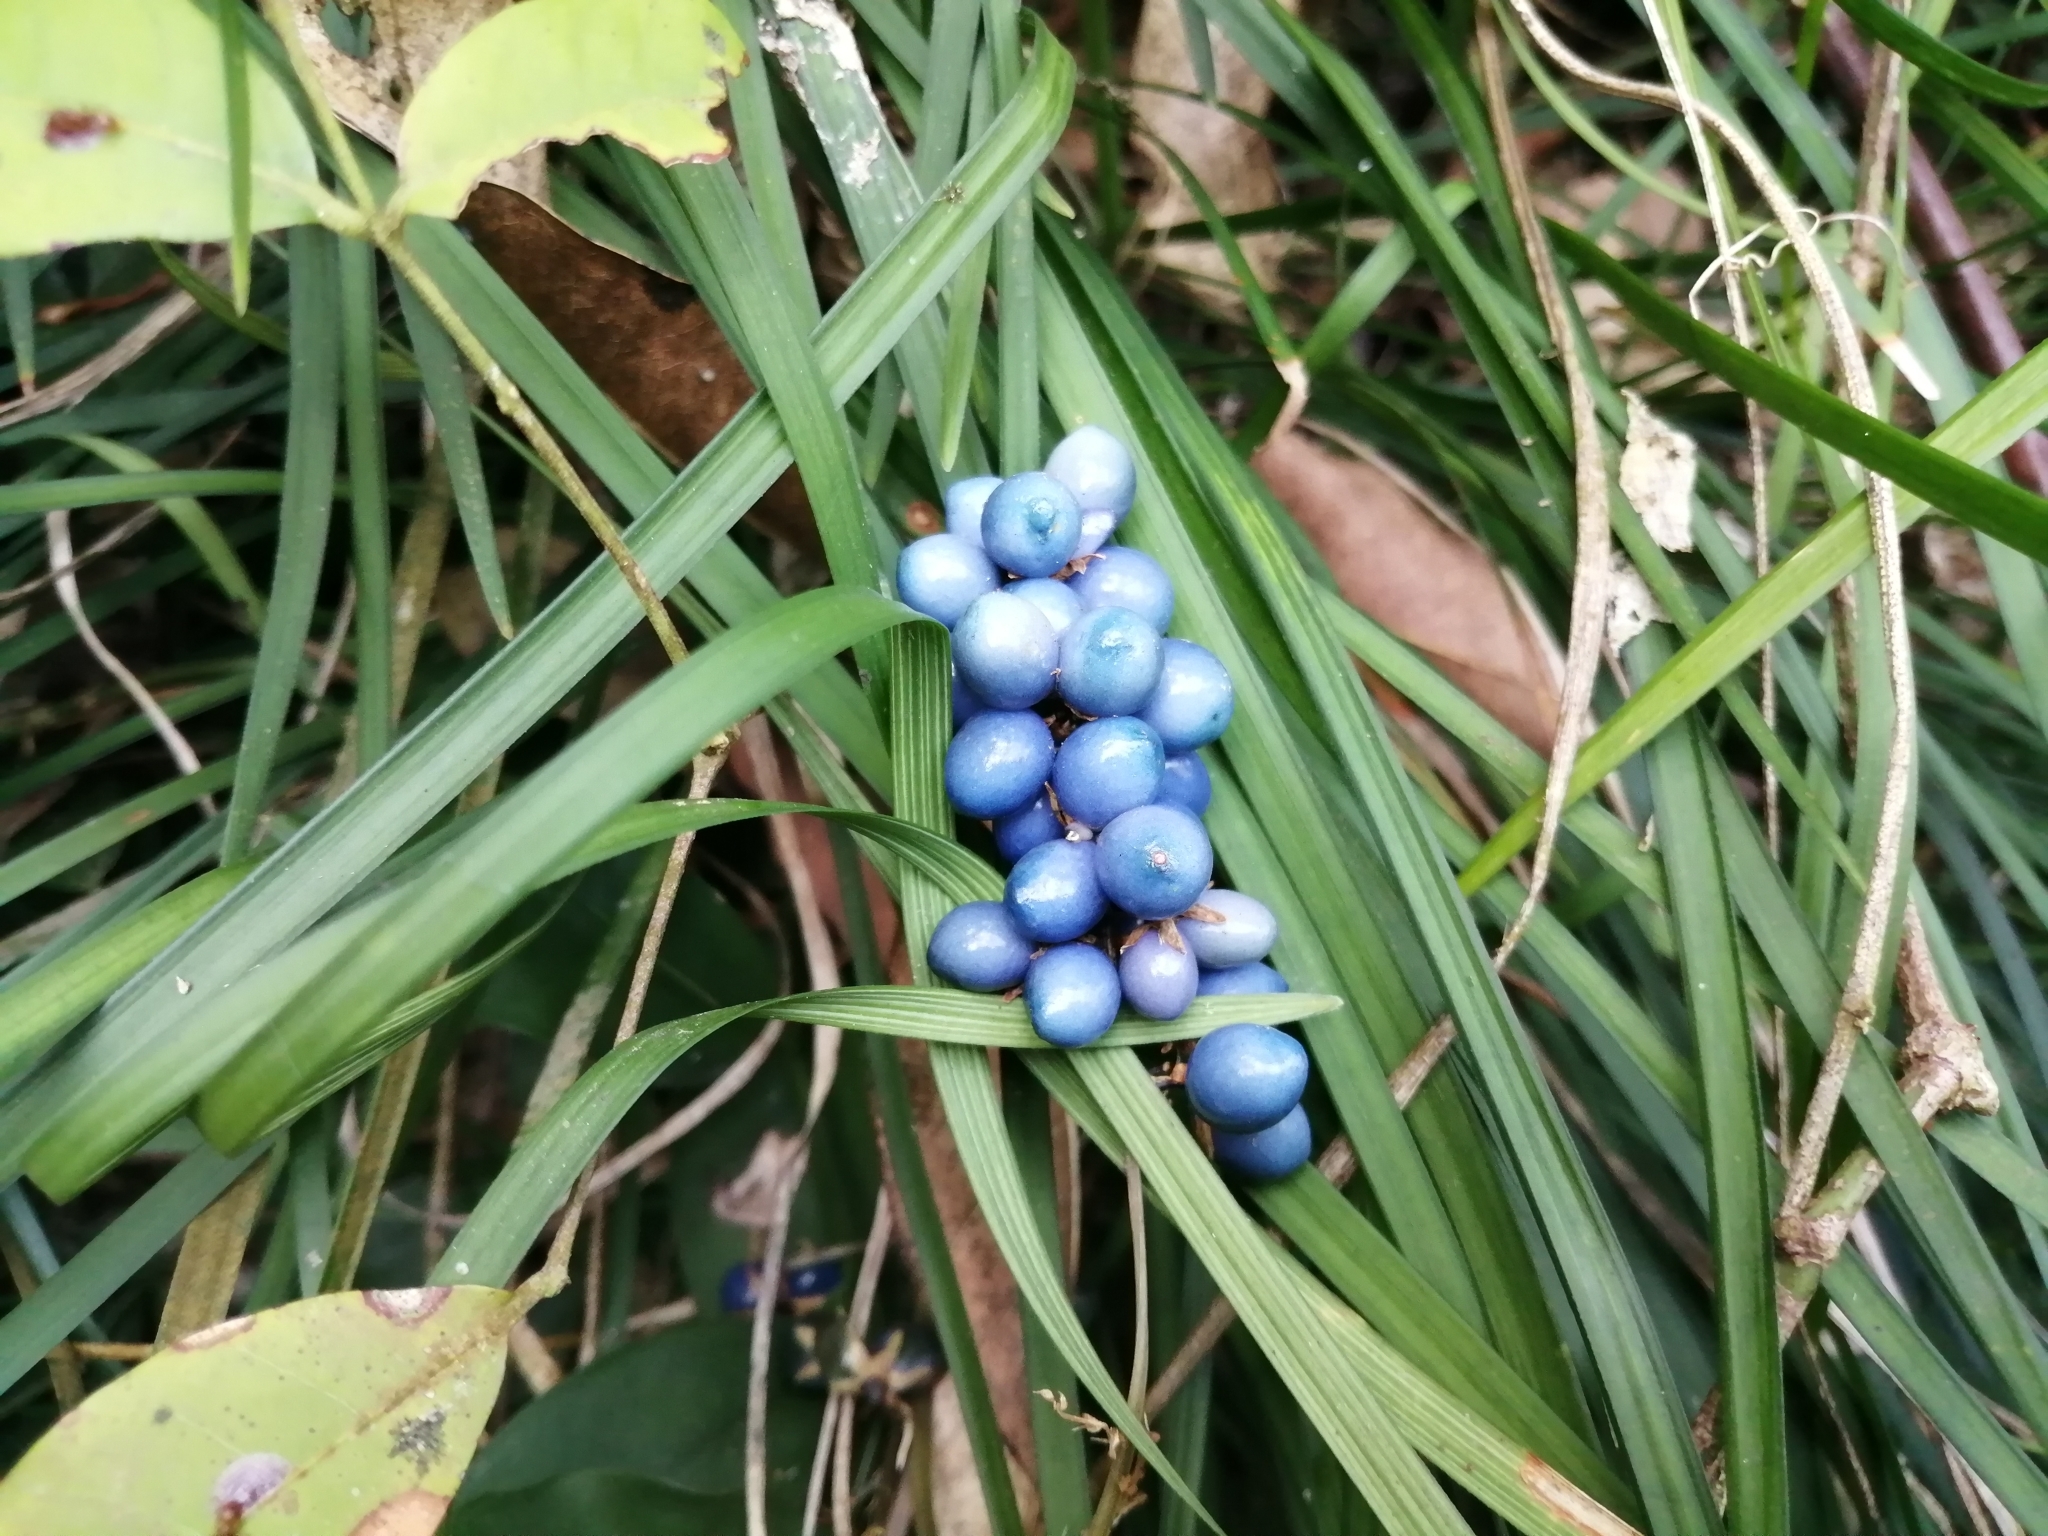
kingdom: Plantae
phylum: Tracheophyta
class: Liliopsida
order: Asparagales
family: Asparagaceae
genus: Ophiopogon
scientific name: Ophiopogon intermedius
